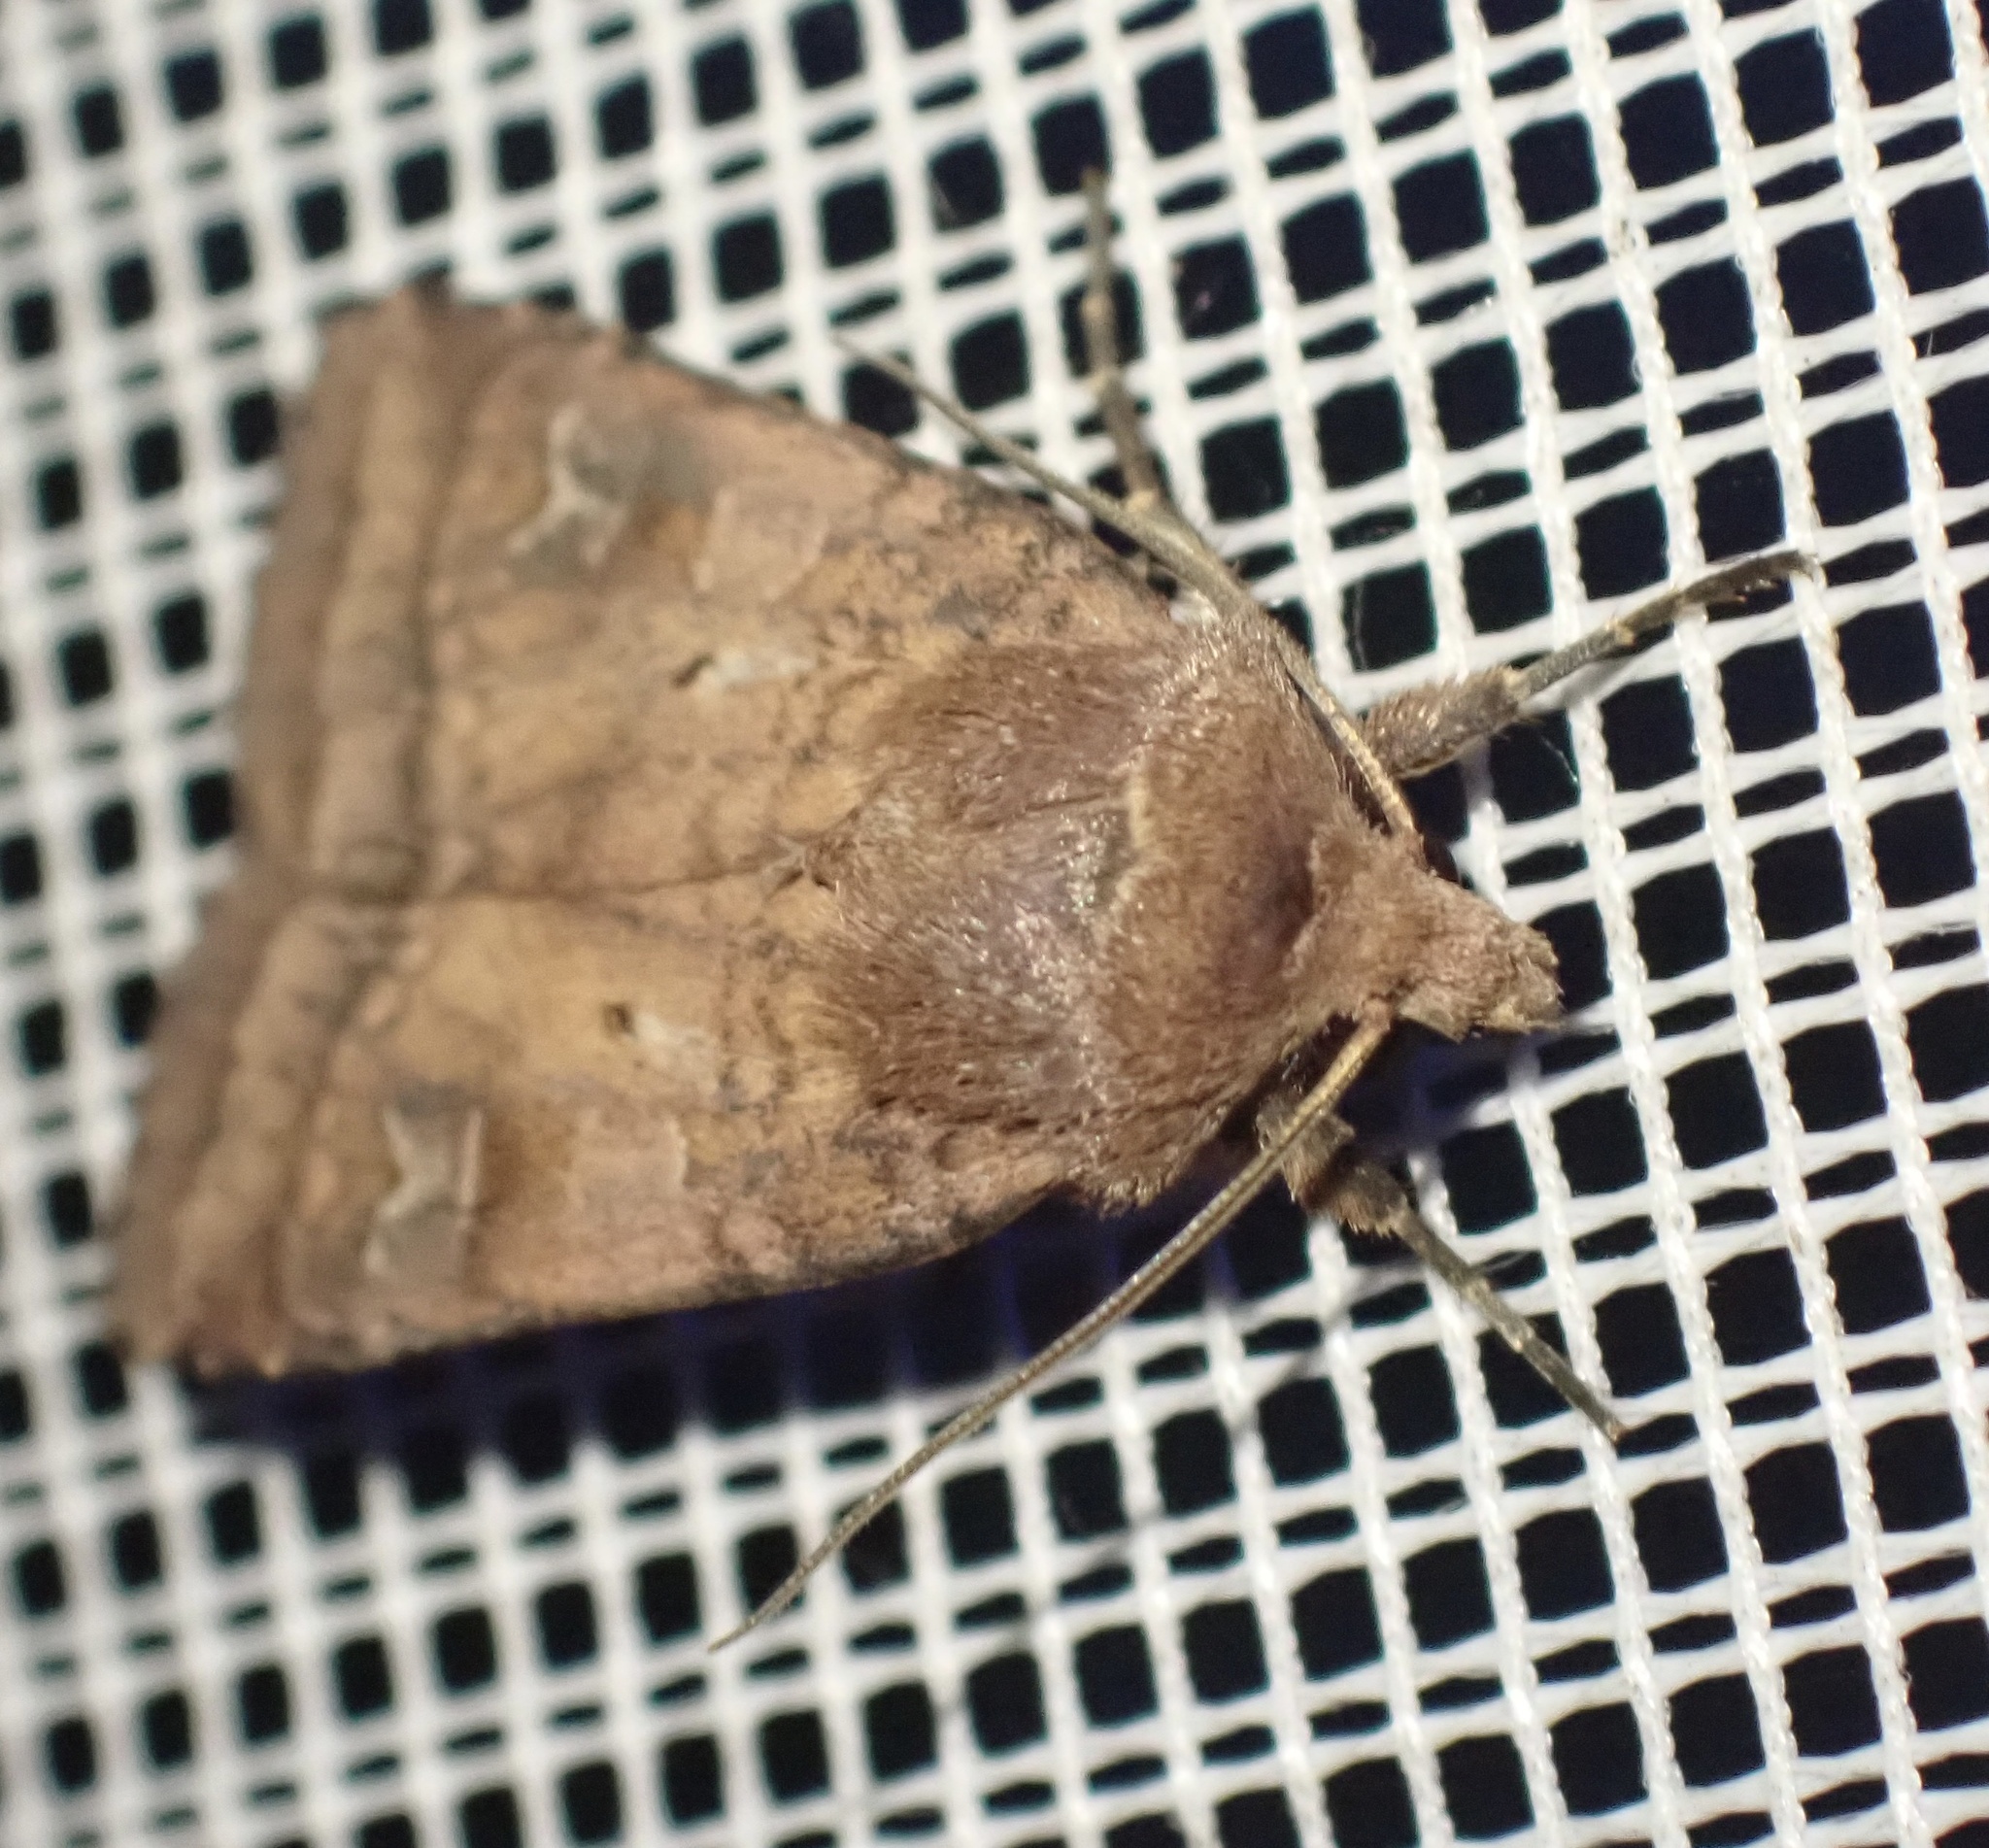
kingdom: Animalia
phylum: Arthropoda
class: Insecta
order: Lepidoptera
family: Noctuidae
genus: Diarsia
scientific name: Diarsia rubi
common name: Small square-spot
